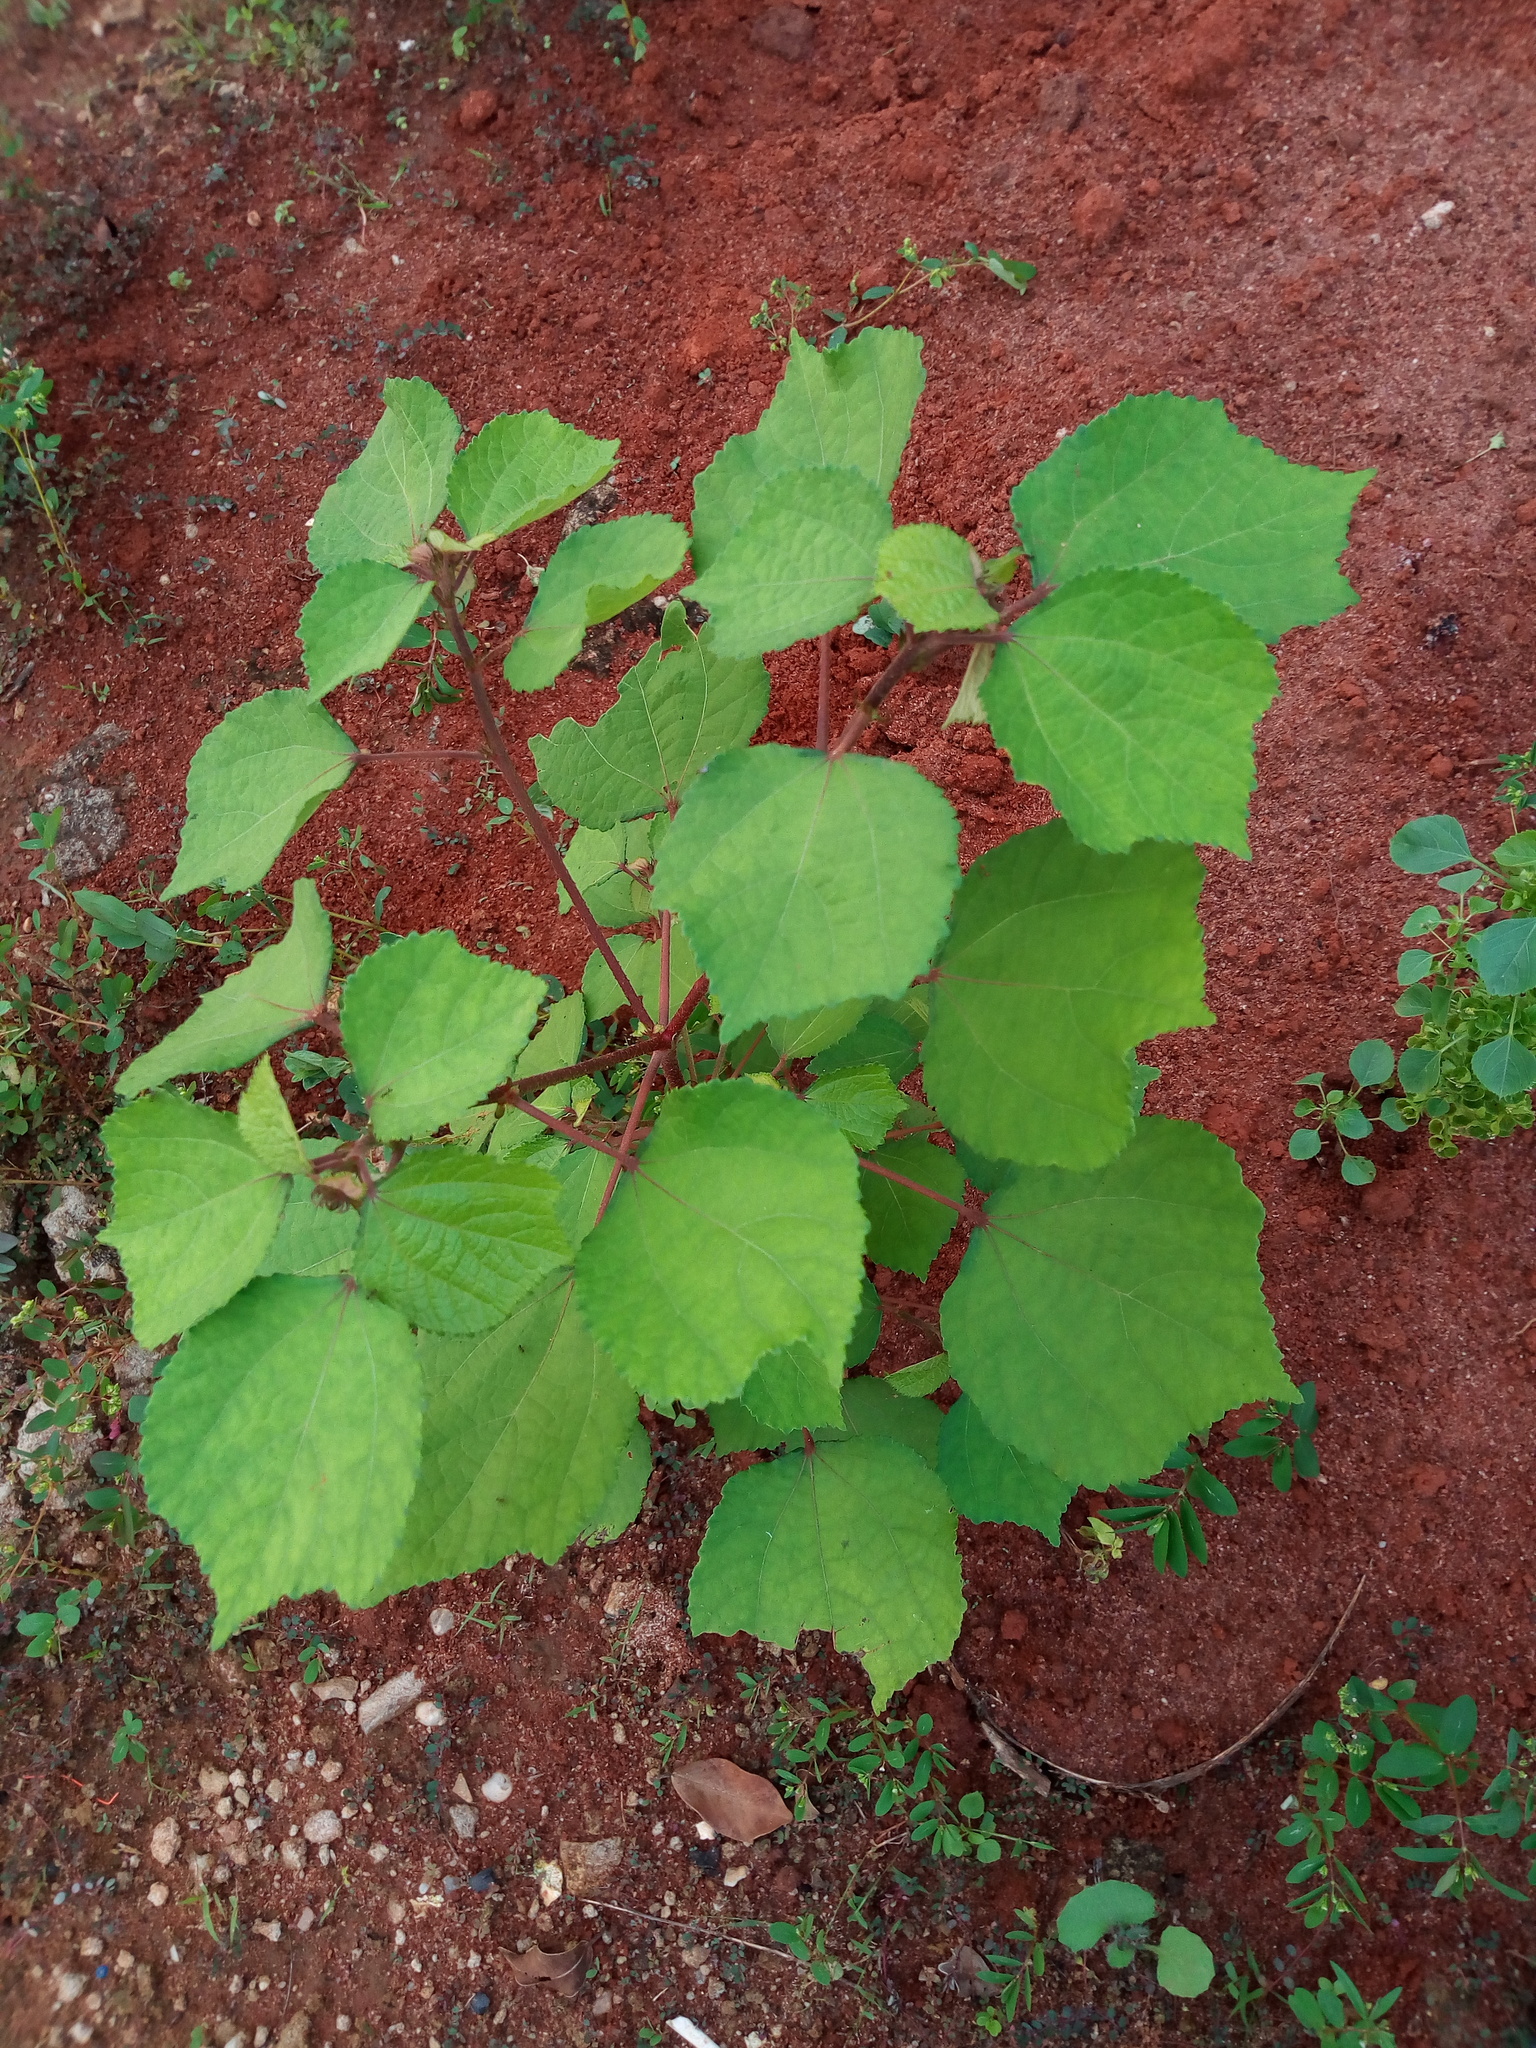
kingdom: Plantae
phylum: Tracheophyta
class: Magnoliopsida
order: Malvales
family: Malvaceae
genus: Triumfetta
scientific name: Triumfetta rhomboidea
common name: Diamond burbark
